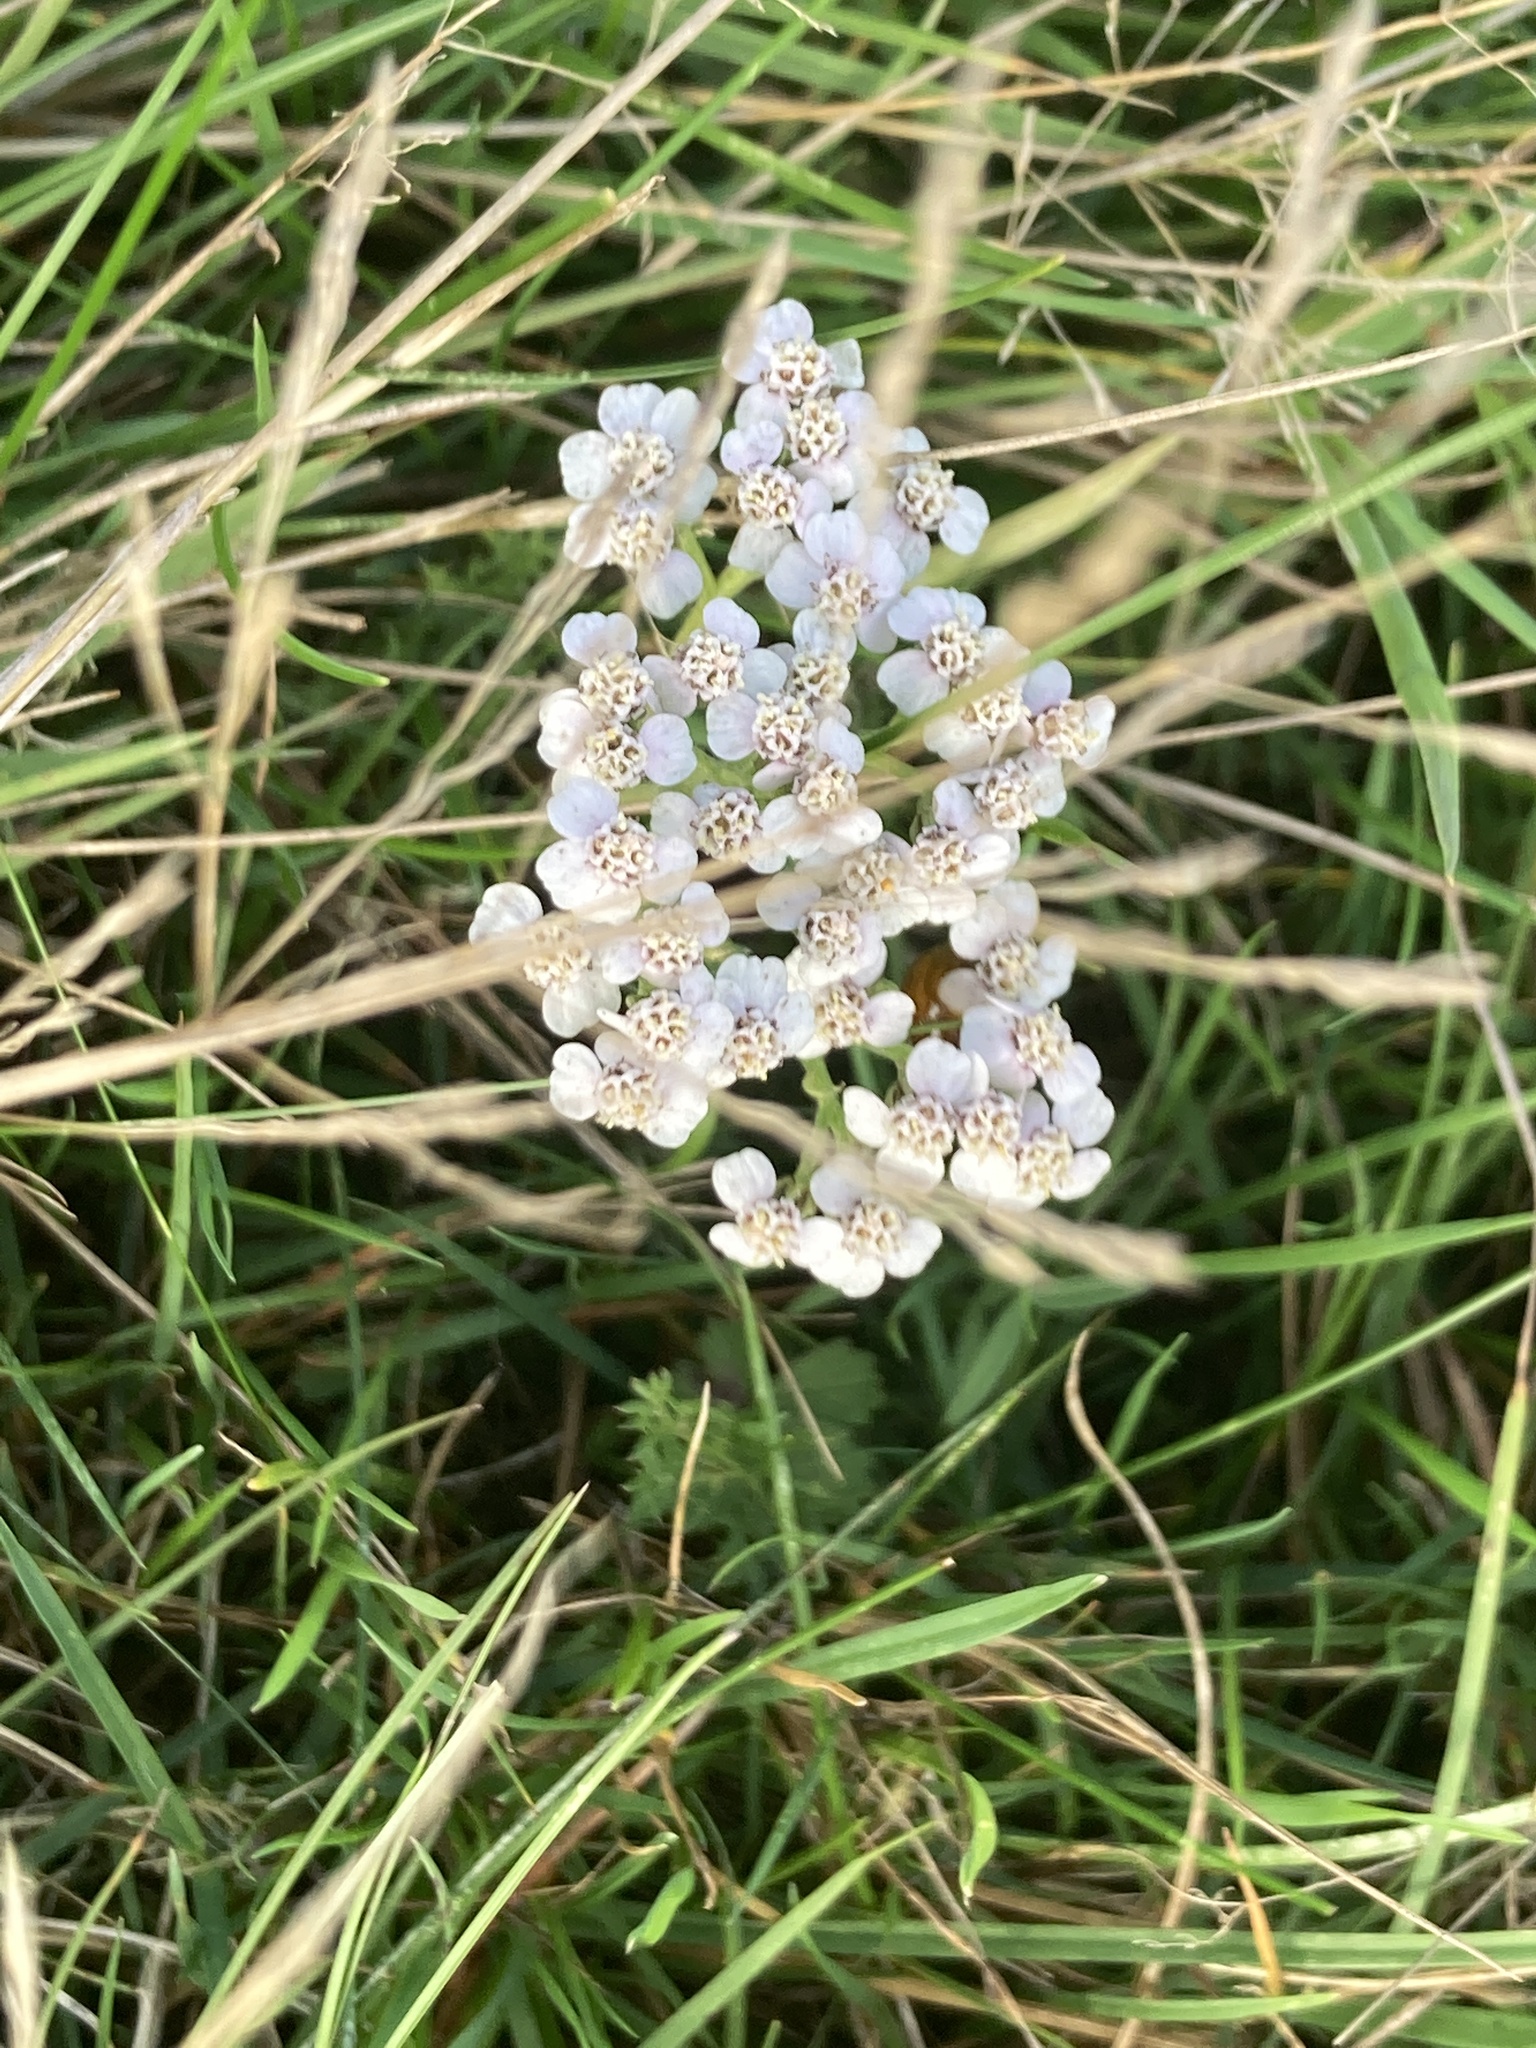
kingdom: Plantae
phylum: Tracheophyta
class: Magnoliopsida
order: Asterales
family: Asteraceae
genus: Achillea
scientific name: Achillea millefolium
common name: Yarrow
